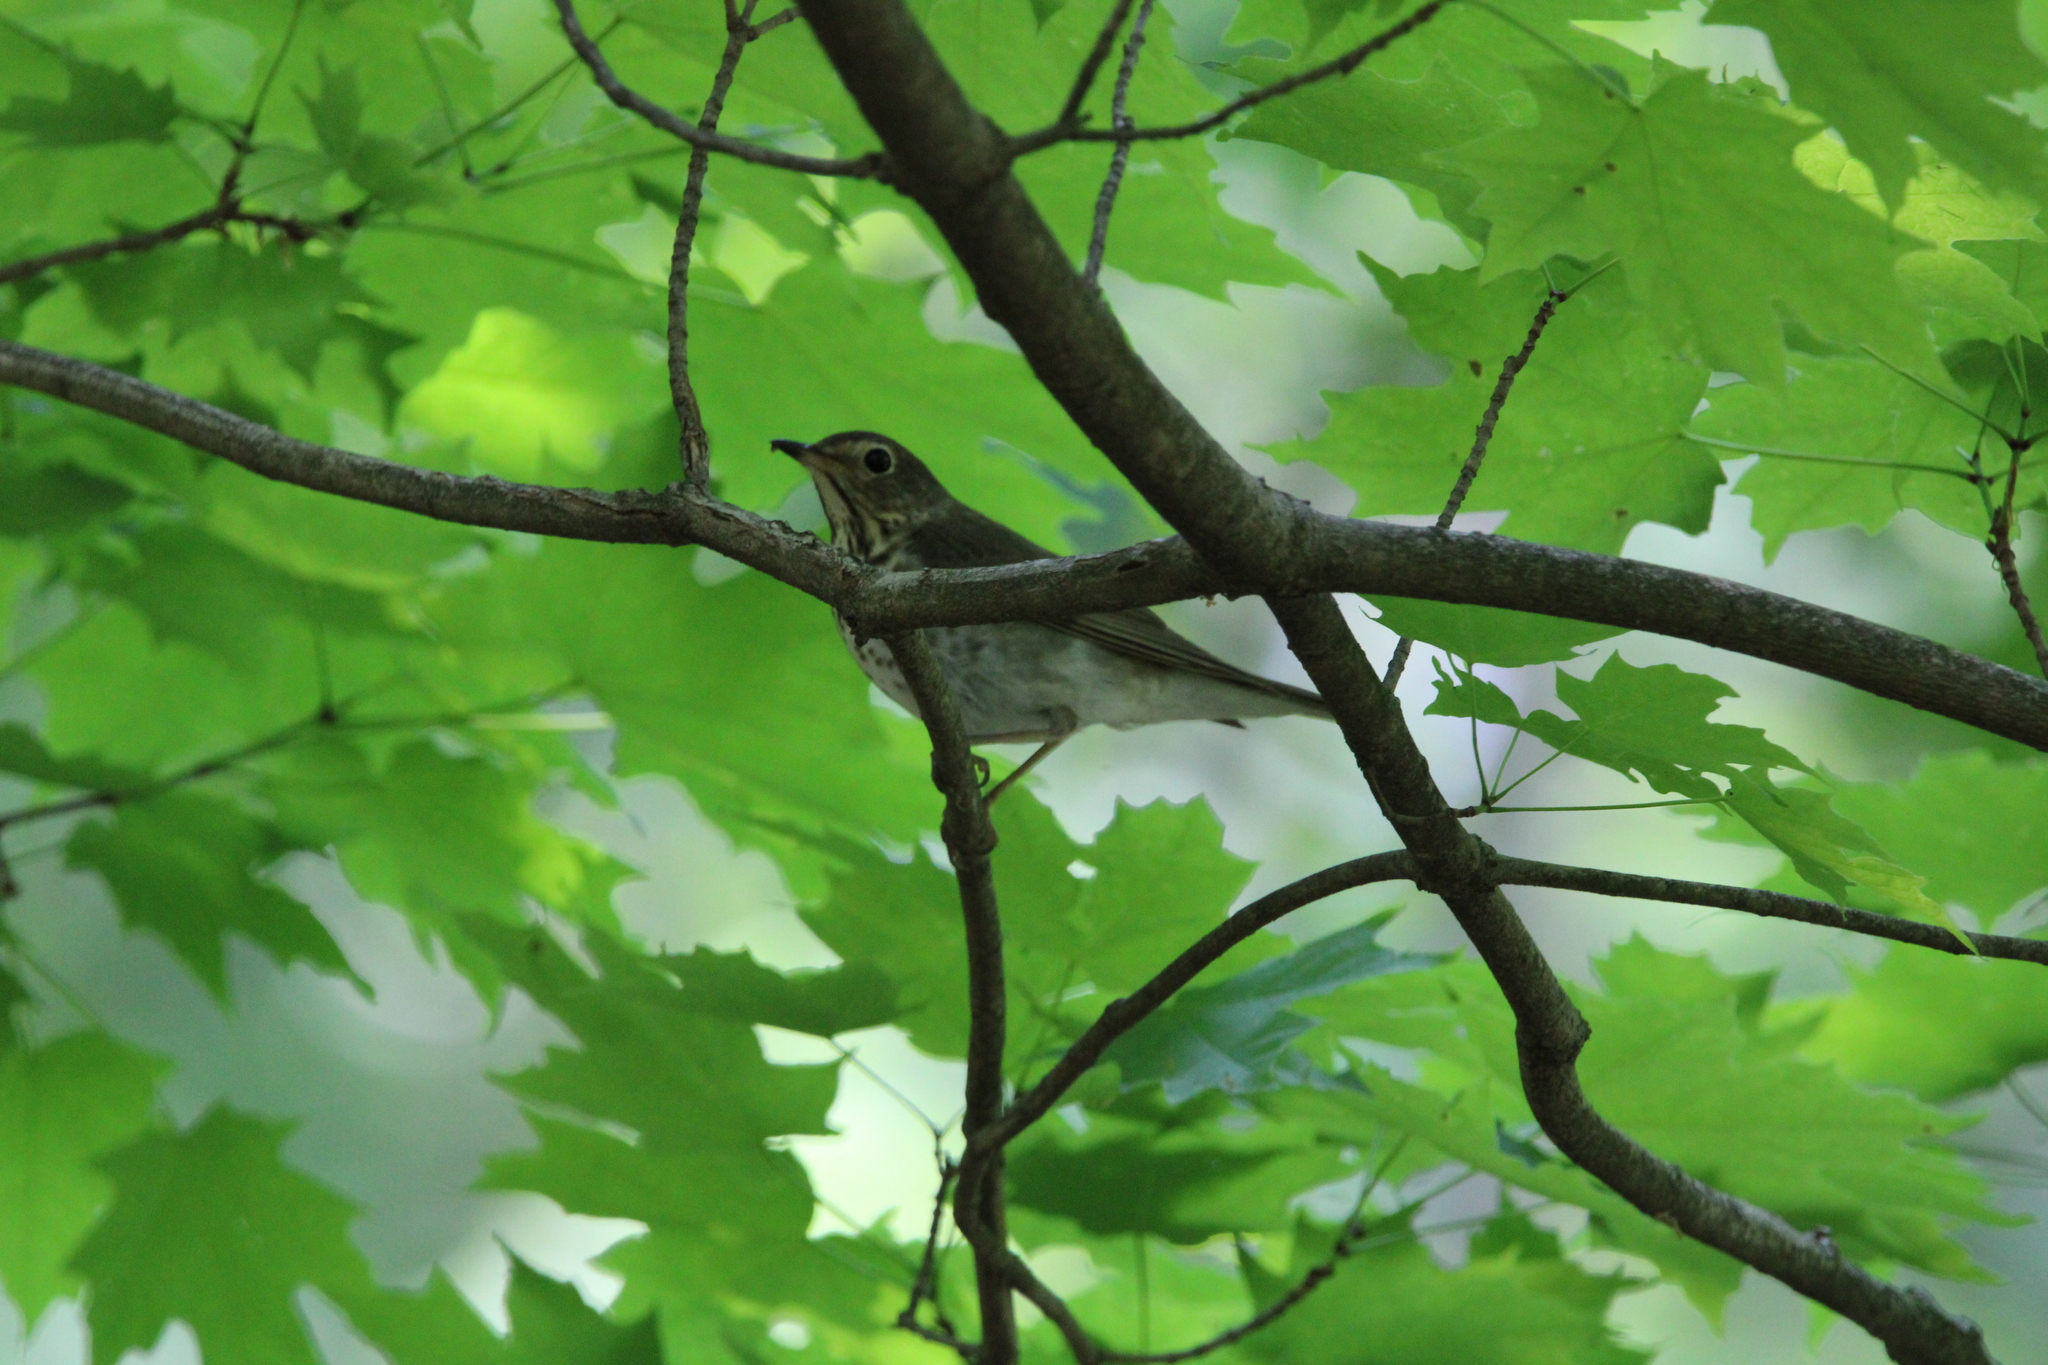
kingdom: Animalia
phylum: Chordata
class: Aves
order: Passeriformes
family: Turdidae
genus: Catharus
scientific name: Catharus ustulatus
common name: Swainson's thrush
